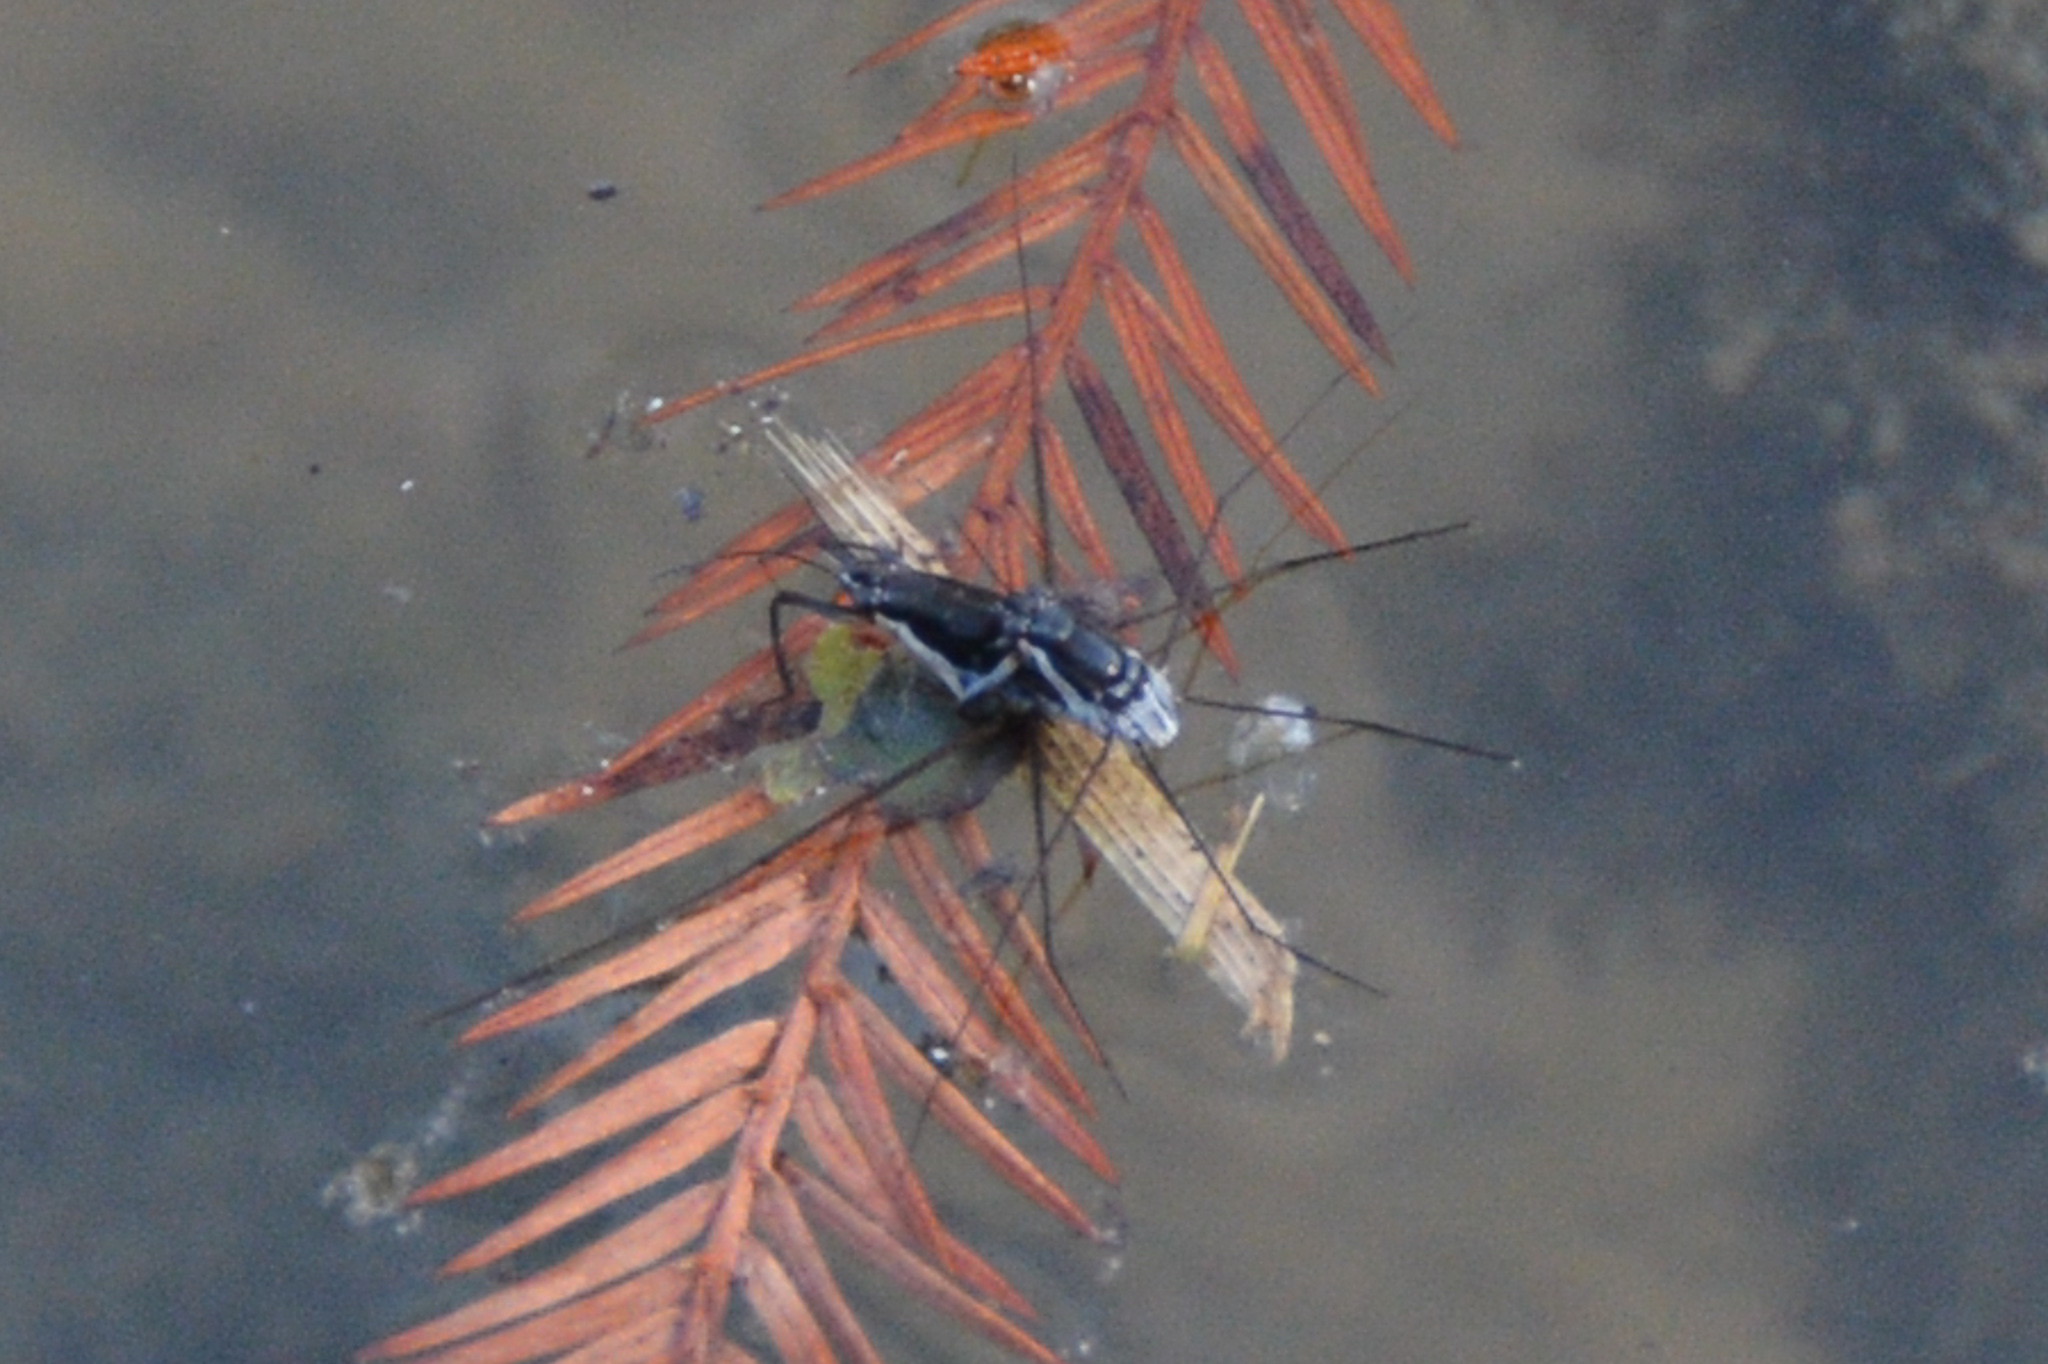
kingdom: Animalia
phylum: Arthropoda
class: Insecta
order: Hemiptera
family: Gerridae
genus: Neogerris
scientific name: Neogerris hesione
